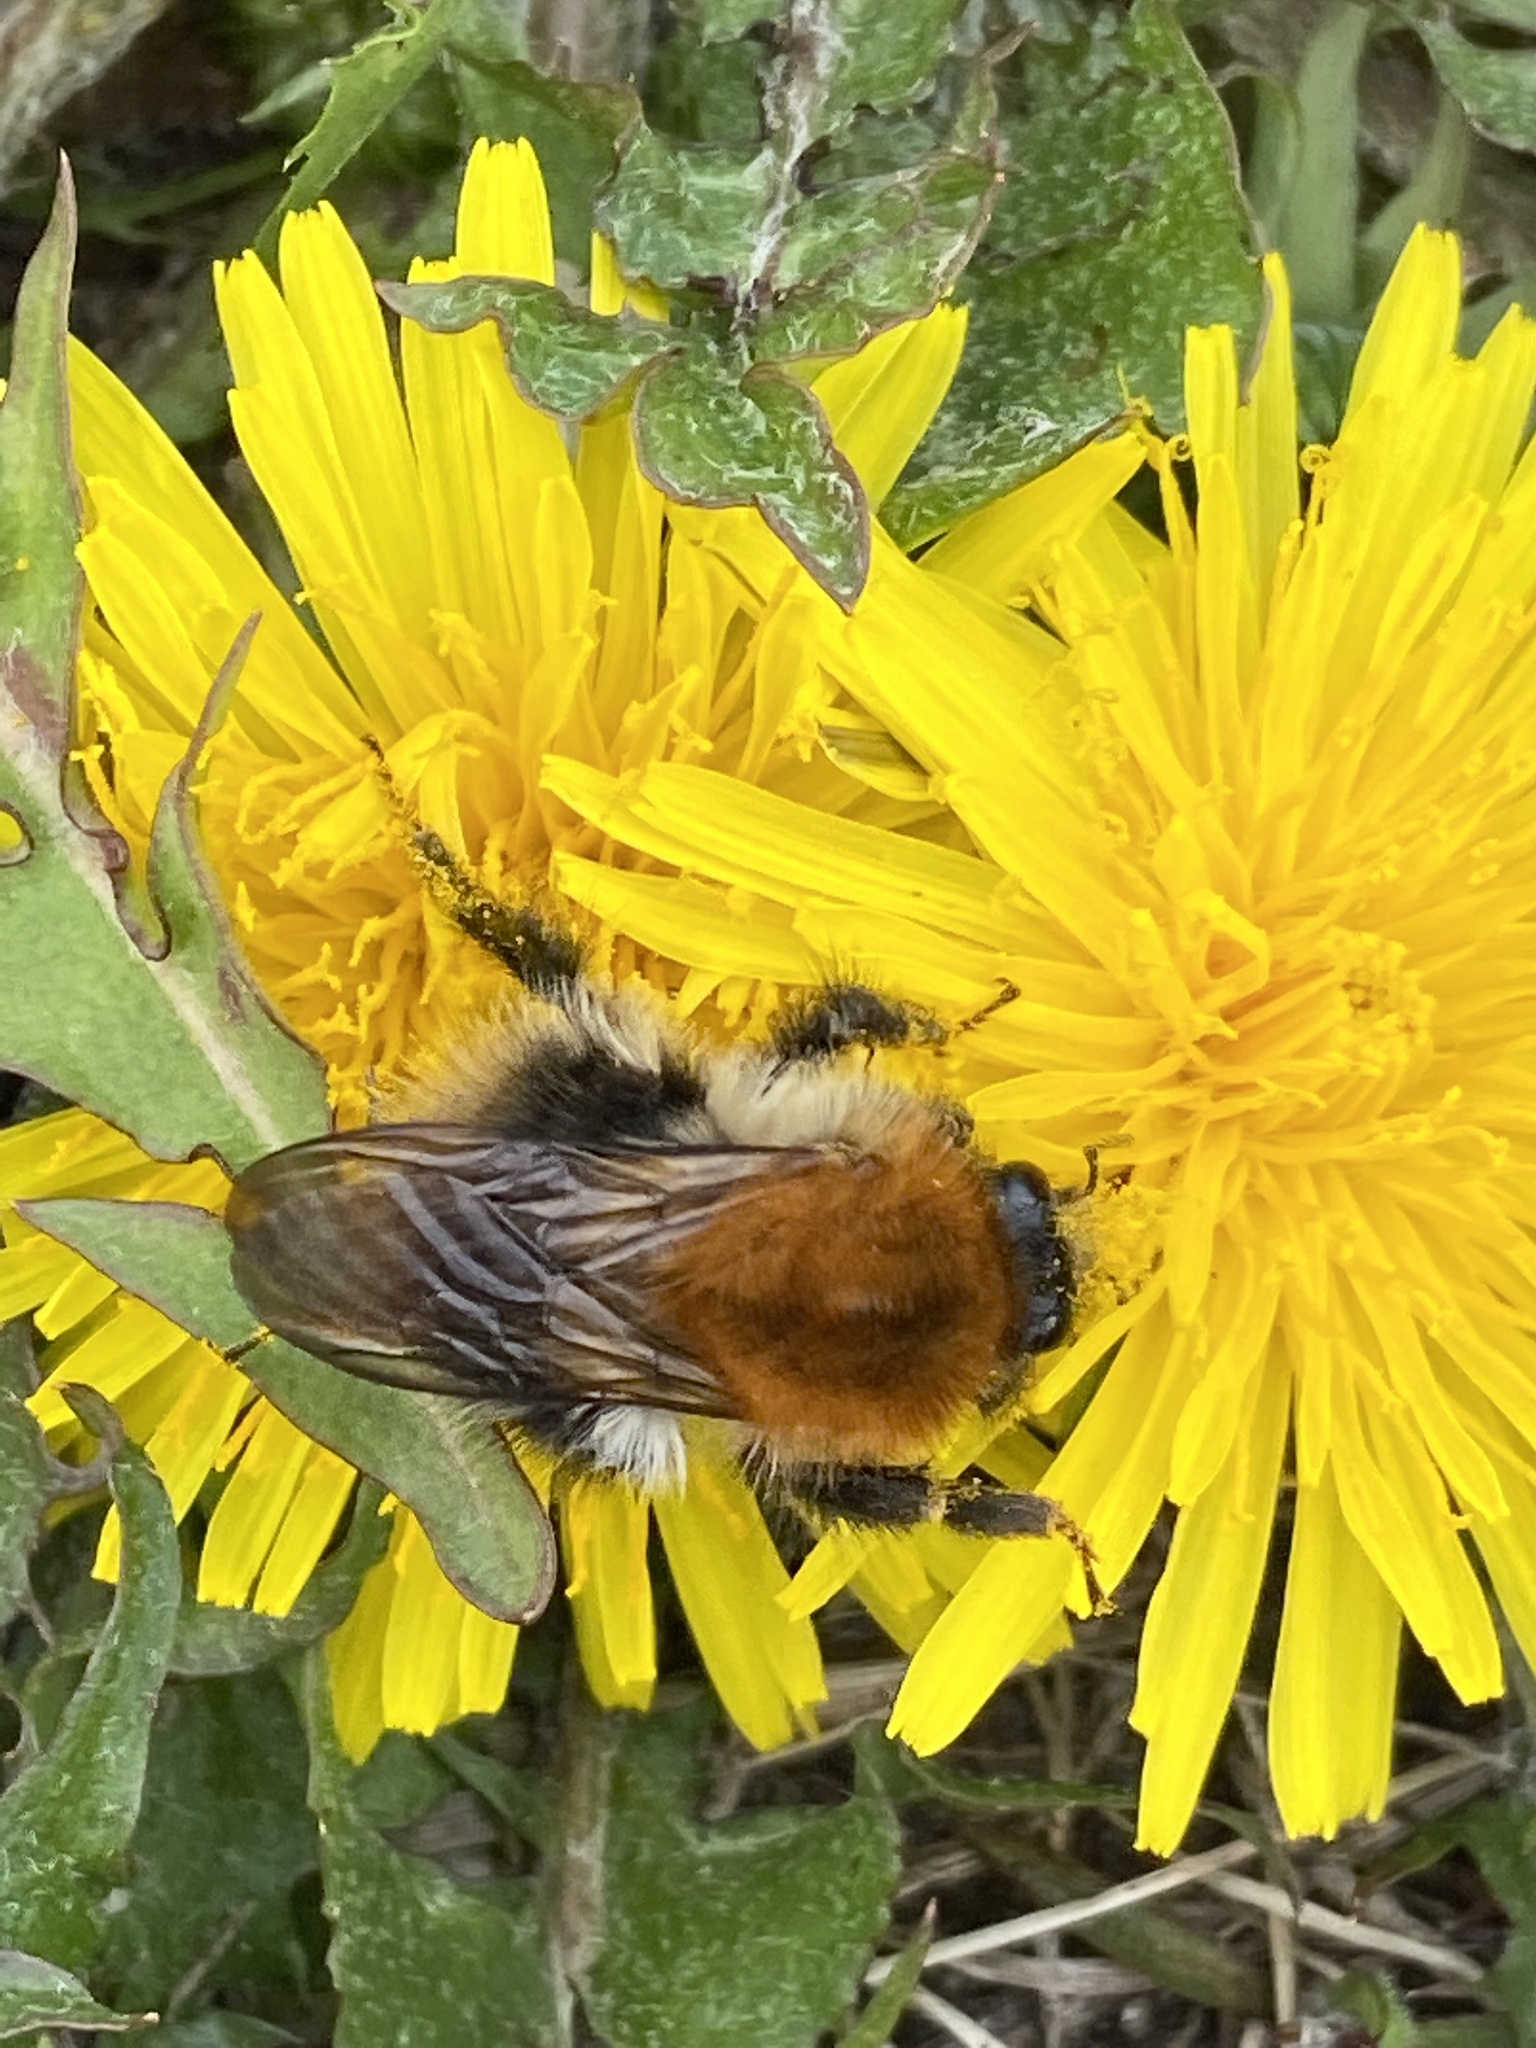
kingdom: Animalia
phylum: Arthropoda
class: Insecta
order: Hymenoptera
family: Apidae
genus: Bombus
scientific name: Bombus pascuorum
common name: Common carder bee
